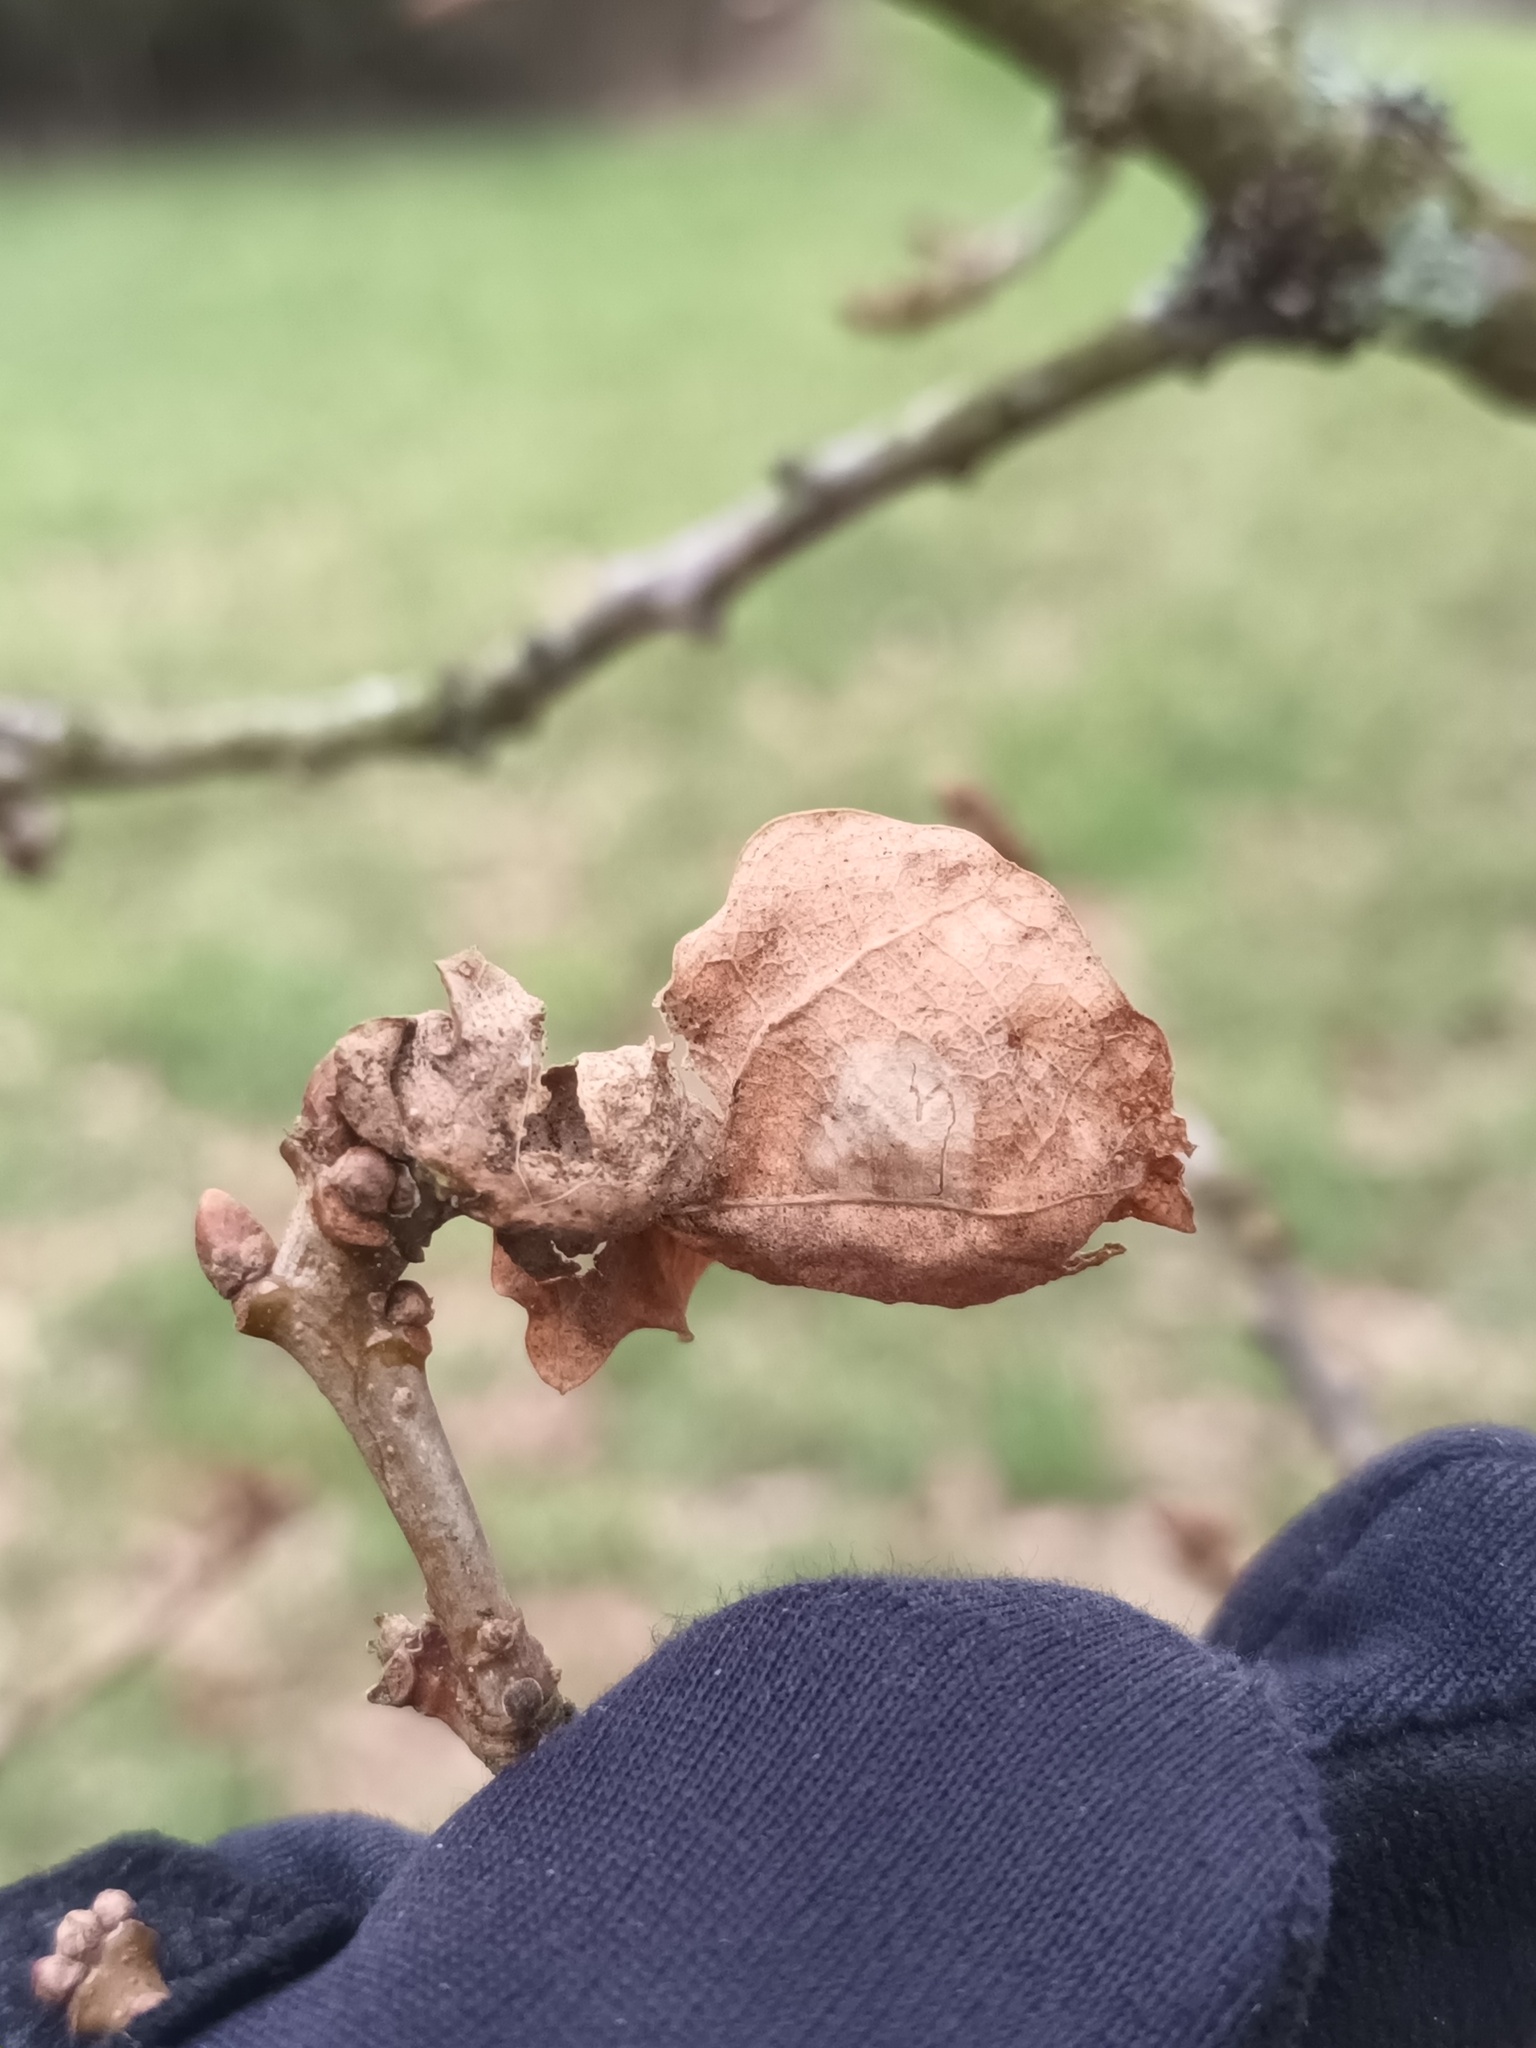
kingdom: Animalia
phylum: Arthropoda
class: Insecta
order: Hymenoptera
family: Cynipidae
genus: Andricus
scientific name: Andricus curvator
